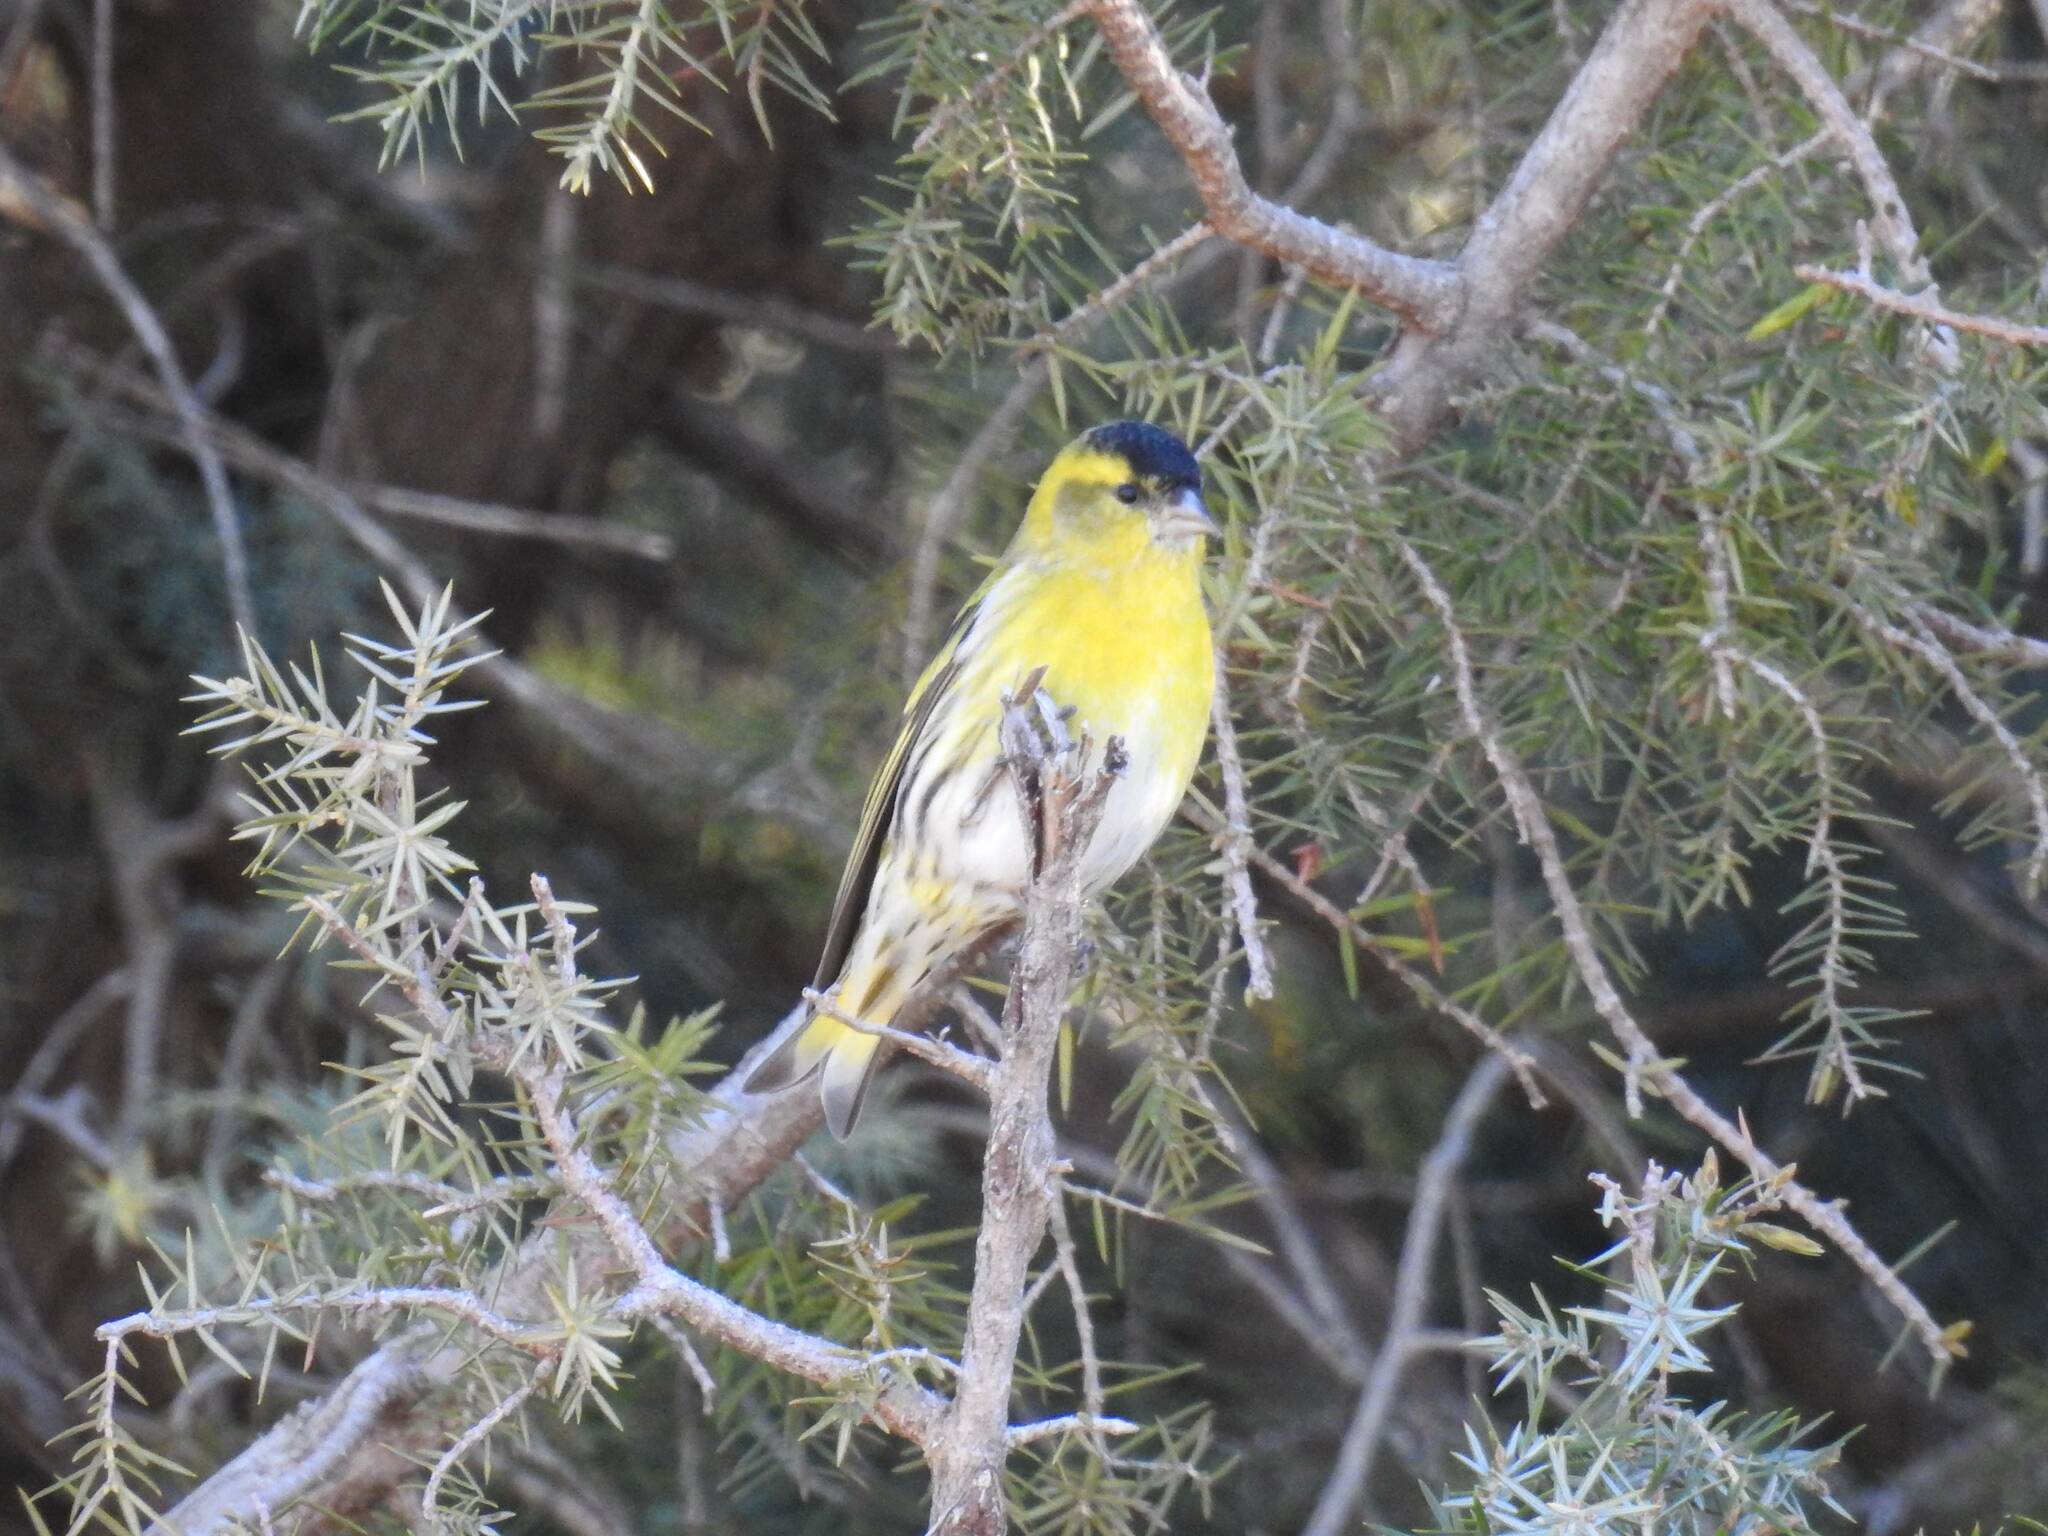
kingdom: Animalia
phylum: Chordata
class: Aves
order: Passeriformes
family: Fringillidae
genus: Spinus
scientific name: Spinus spinus
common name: Eurasian siskin
